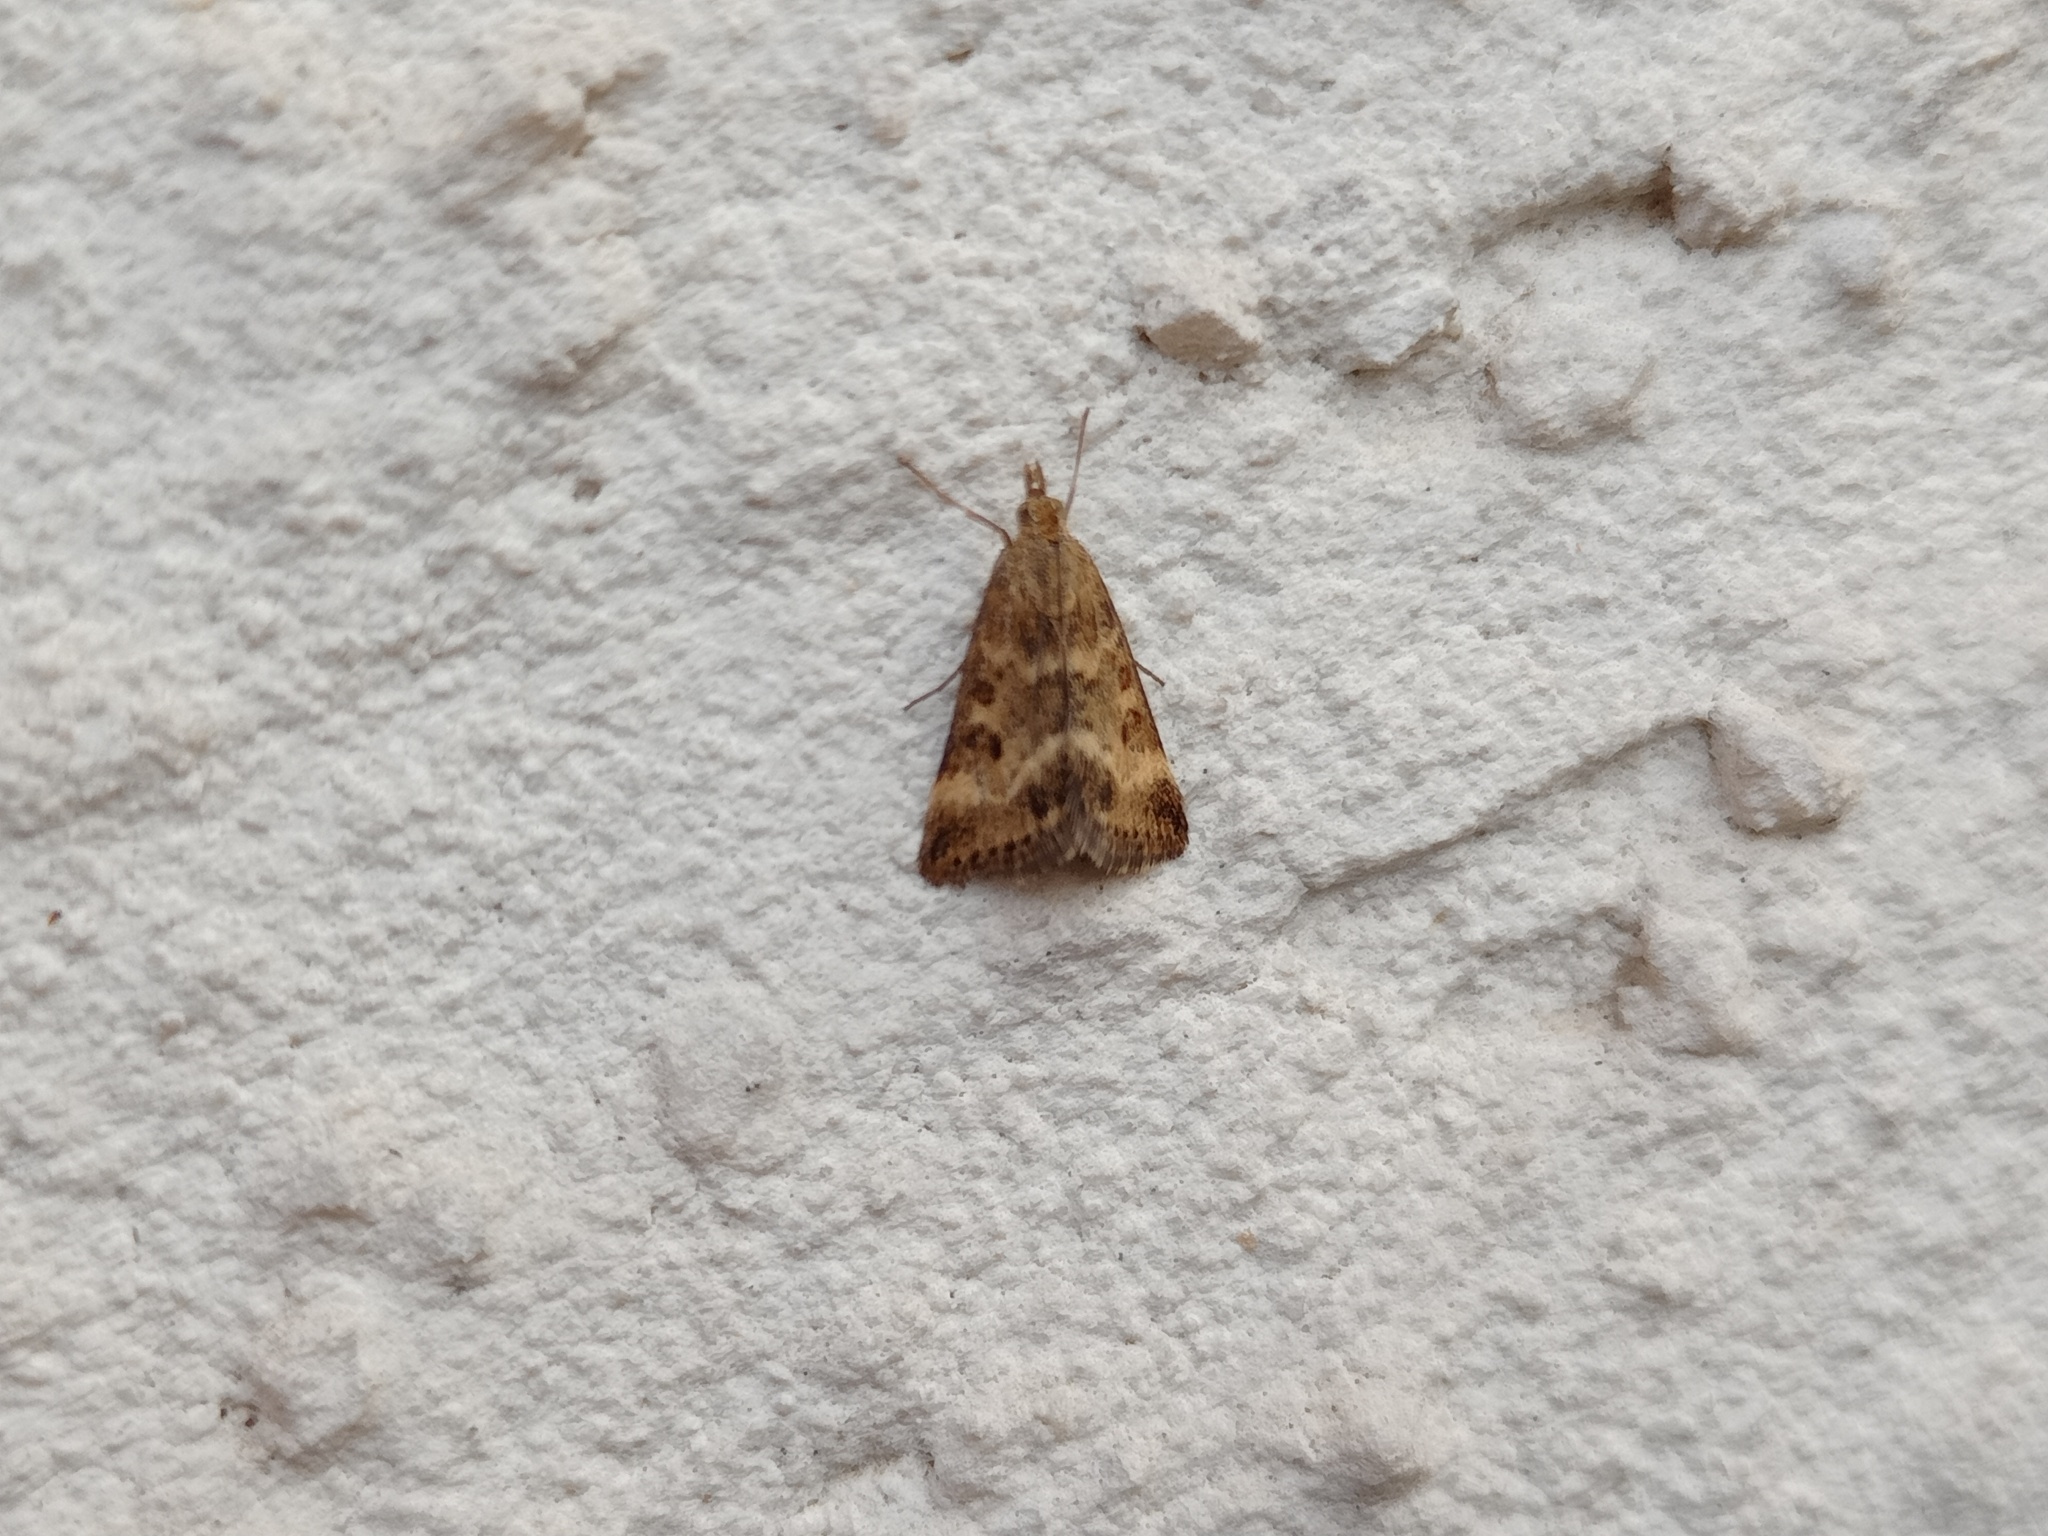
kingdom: Animalia
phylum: Arthropoda
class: Insecta
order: Lepidoptera
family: Crambidae
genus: Pyrausta
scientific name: Pyrausta despicata
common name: Straw-barred pearl
